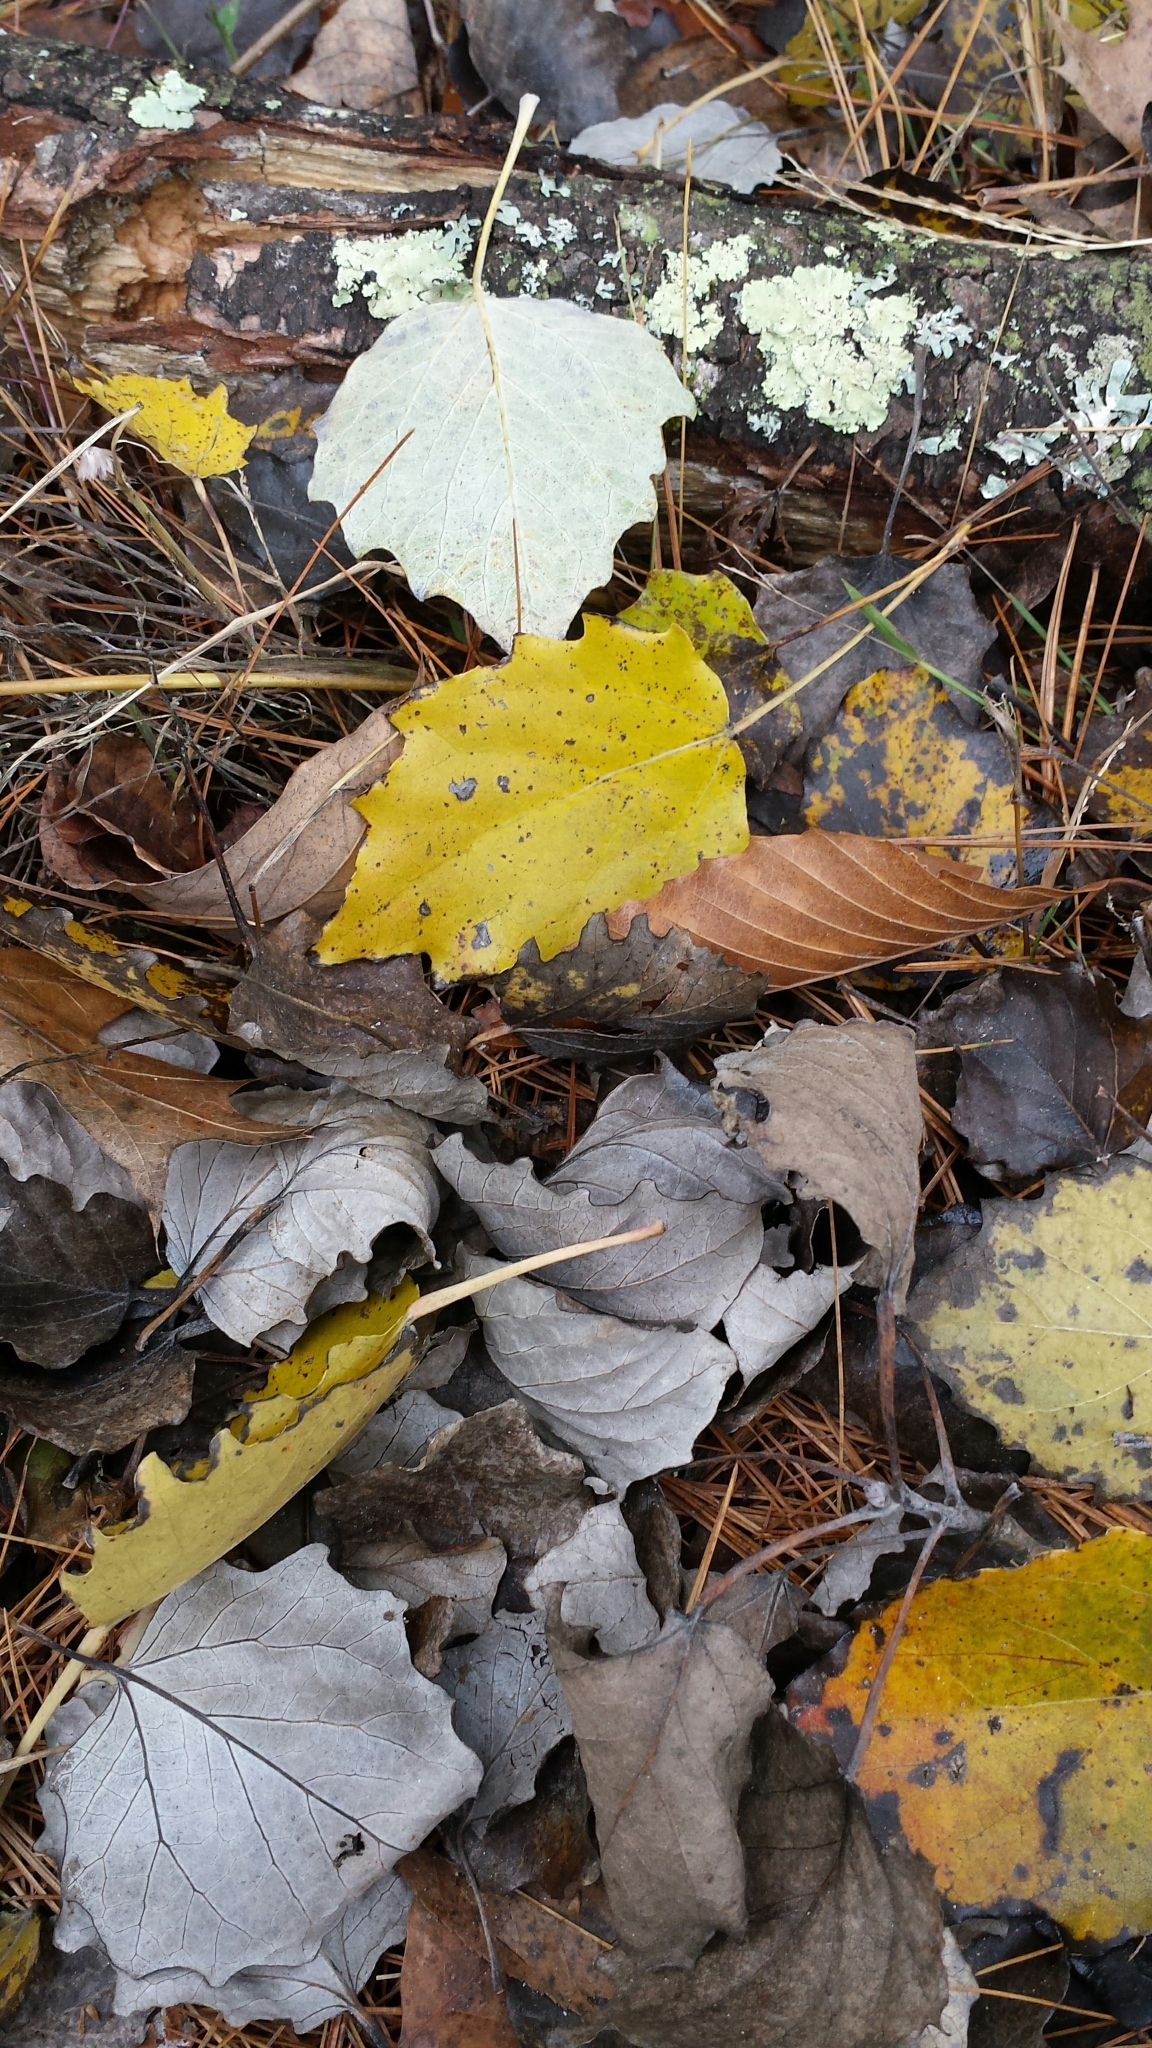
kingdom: Plantae
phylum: Tracheophyta
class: Magnoliopsida
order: Malpighiales
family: Salicaceae
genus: Populus
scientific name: Populus alba
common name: White poplar
